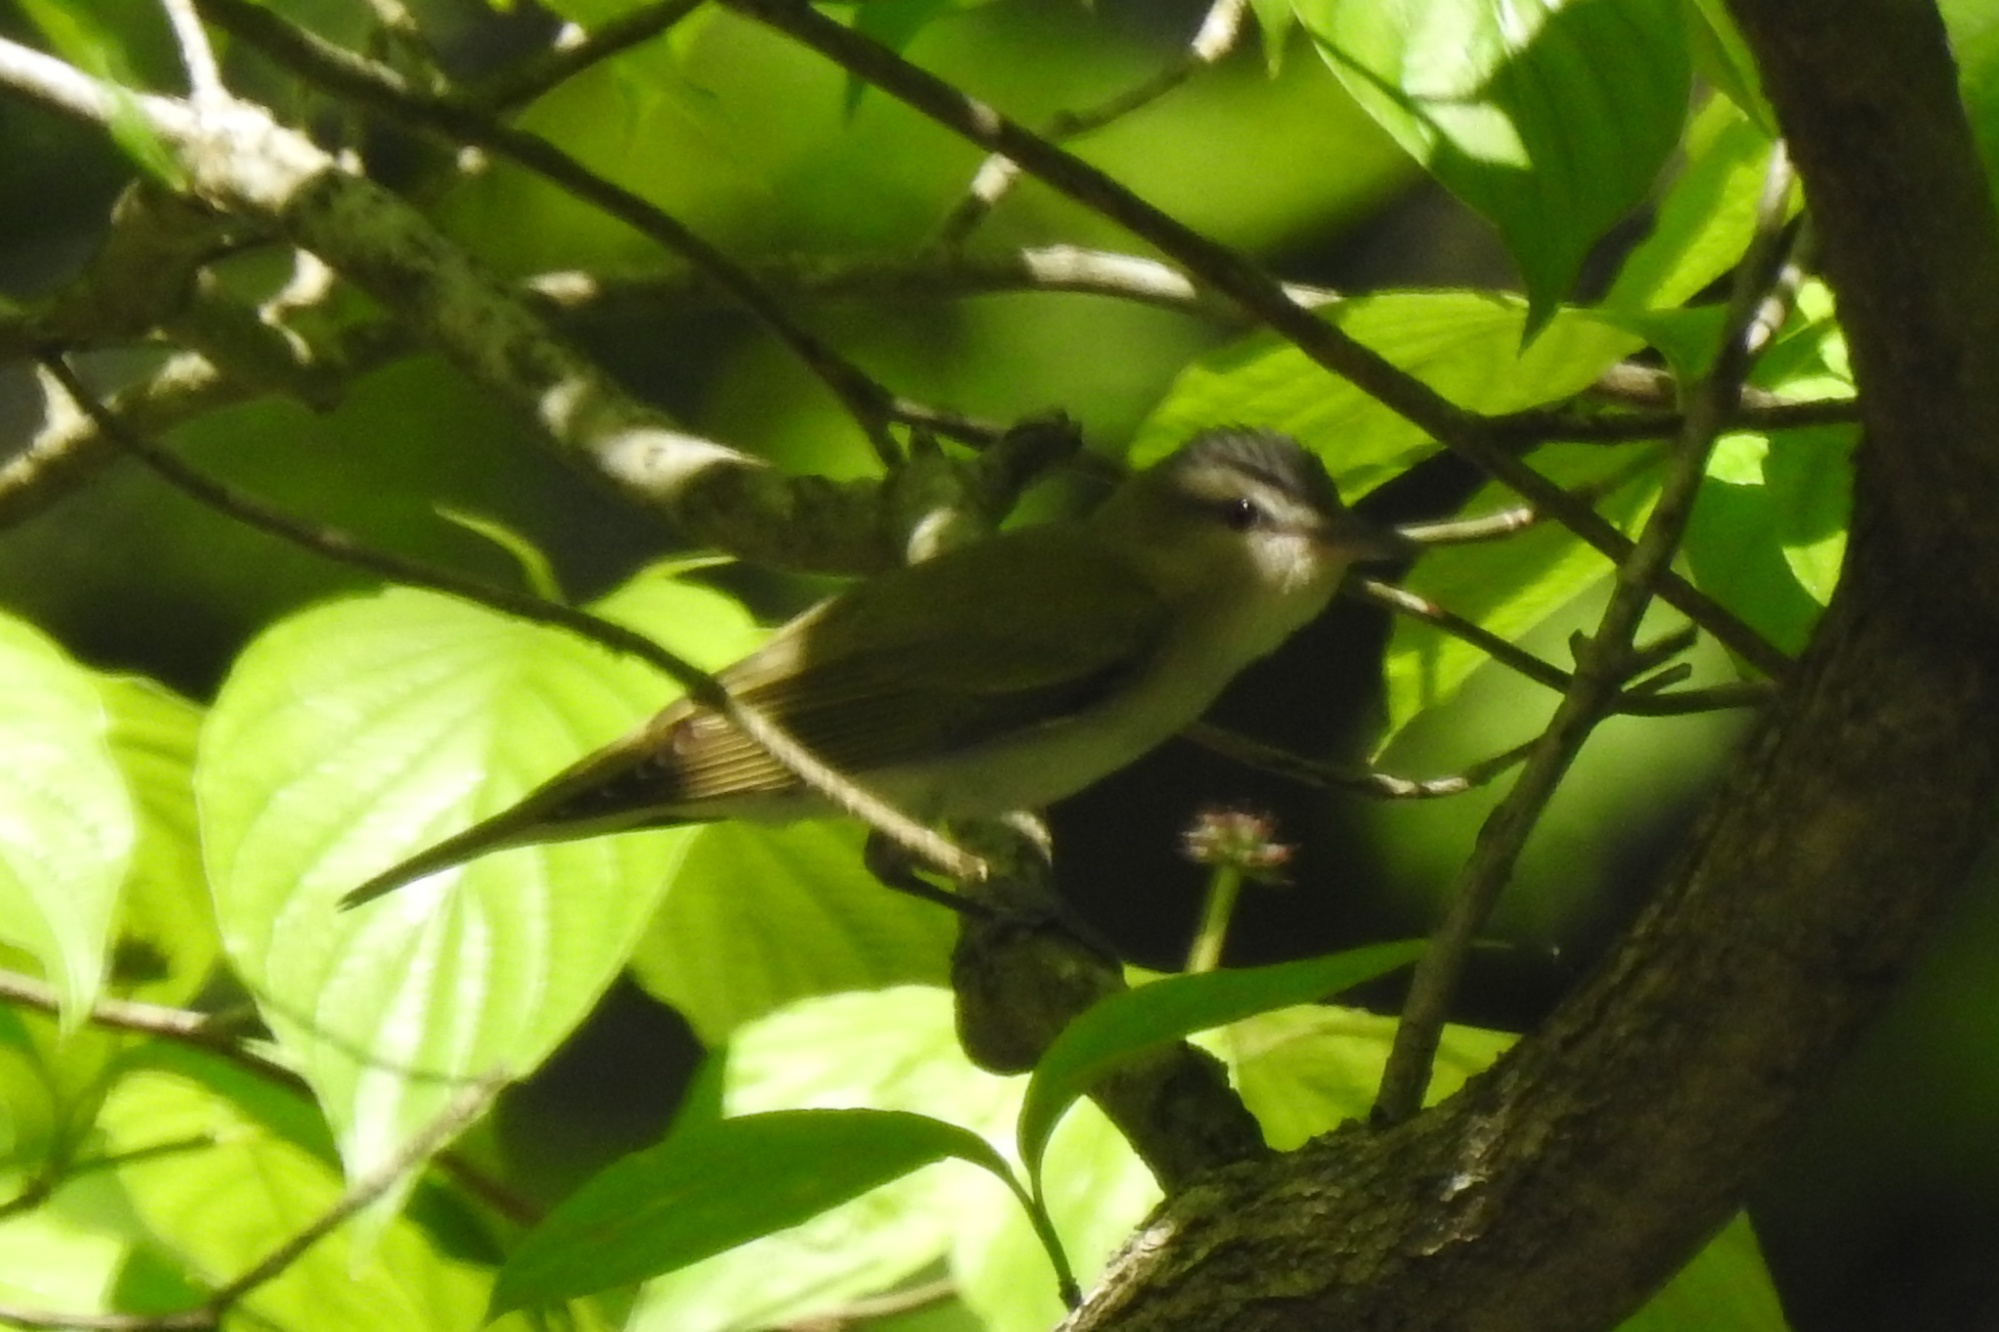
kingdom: Animalia
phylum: Chordata
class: Aves
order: Passeriformes
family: Vireonidae
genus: Vireo
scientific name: Vireo olivaceus
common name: Red-eyed vireo
